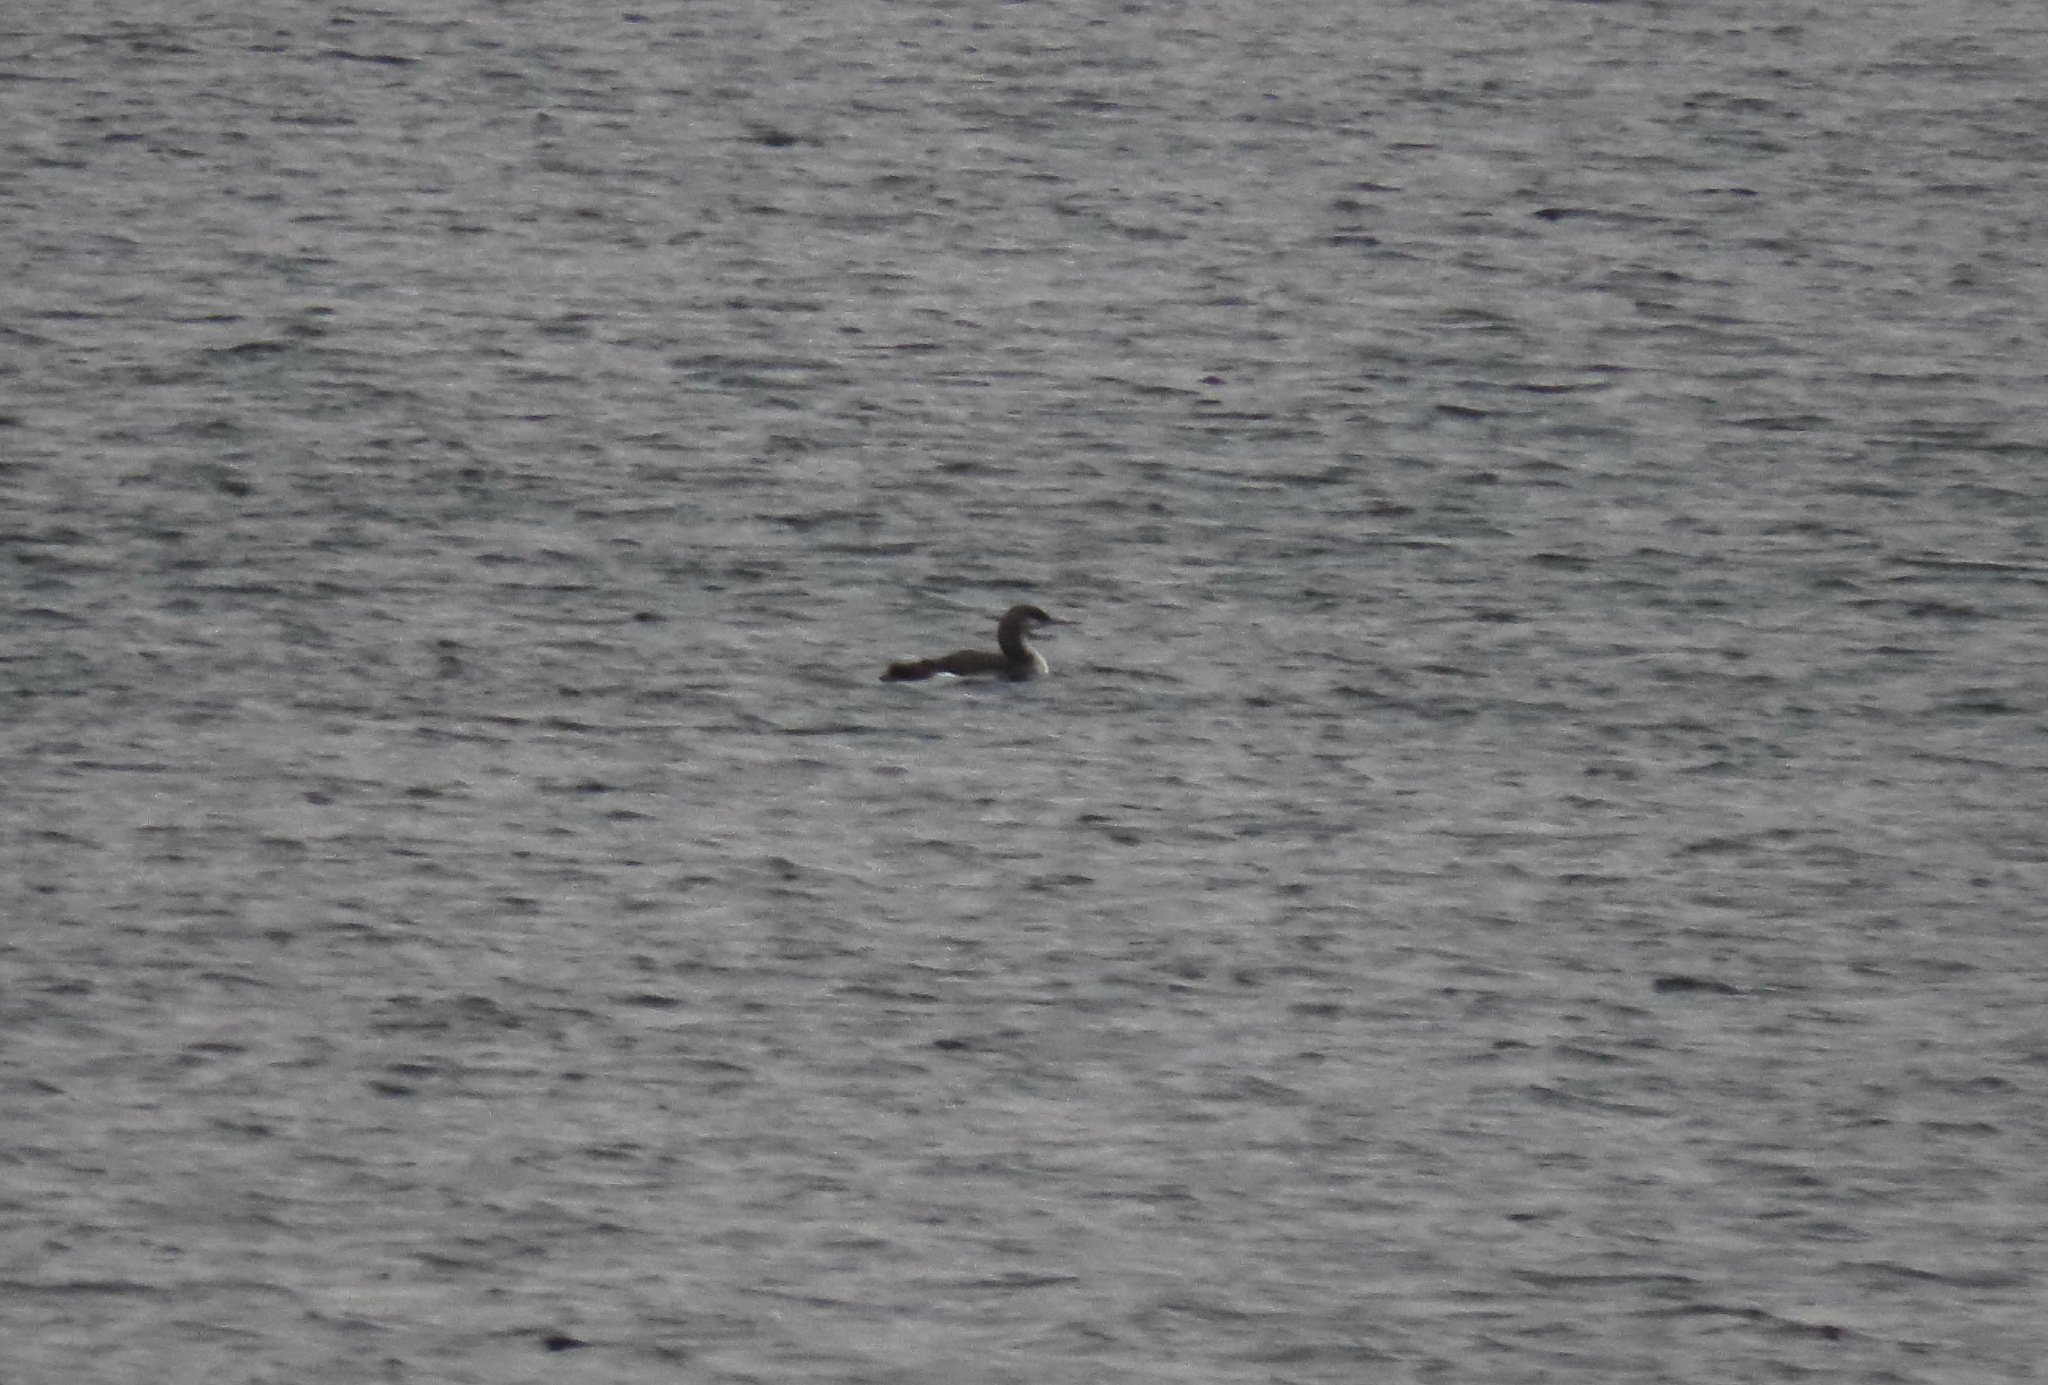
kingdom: Animalia
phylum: Chordata
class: Aves
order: Gaviiformes
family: Gaviidae
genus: Gavia
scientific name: Gavia arctica
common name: Black-throated loon
